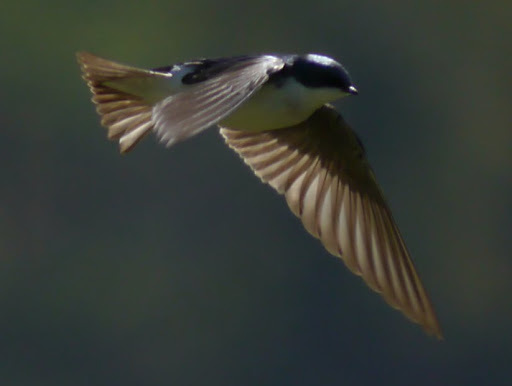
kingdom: Animalia
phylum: Chordata
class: Aves
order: Passeriformes
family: Hirundinidae
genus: Tachycineta
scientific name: Tachycineta bicolor
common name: Tree swallow
